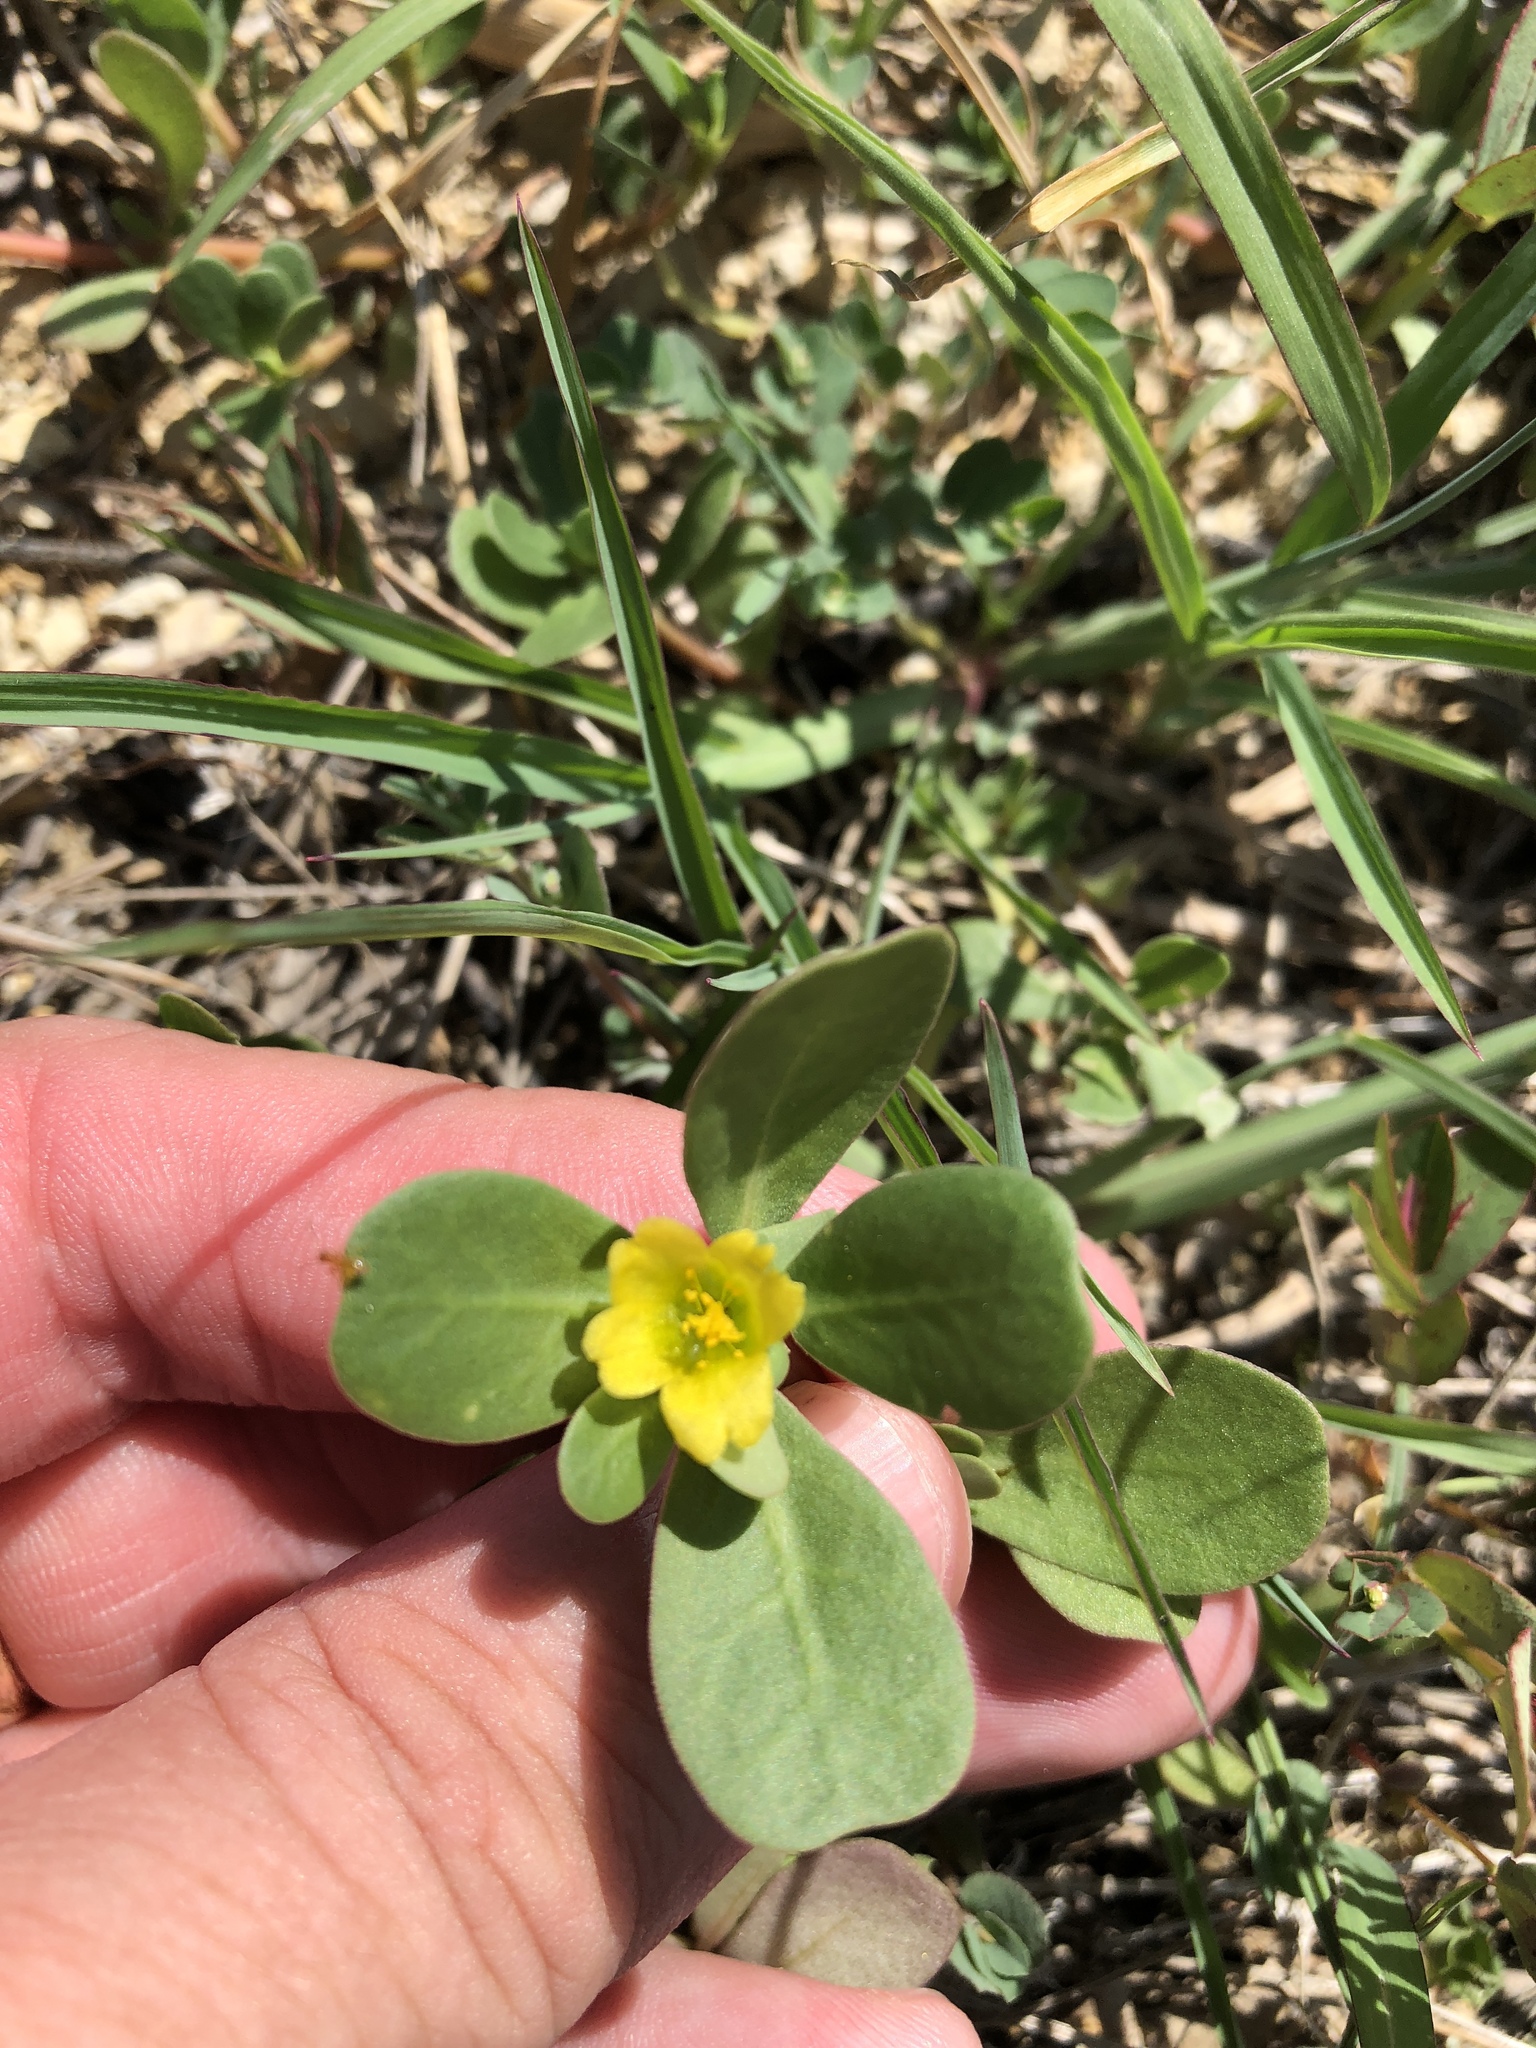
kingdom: Plantae
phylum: Tracheophyta
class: Magnoliopsida
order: Caryophyllales
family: Portulacaceae
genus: Portulaca
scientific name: Portulaca oleracea
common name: Common purslane
